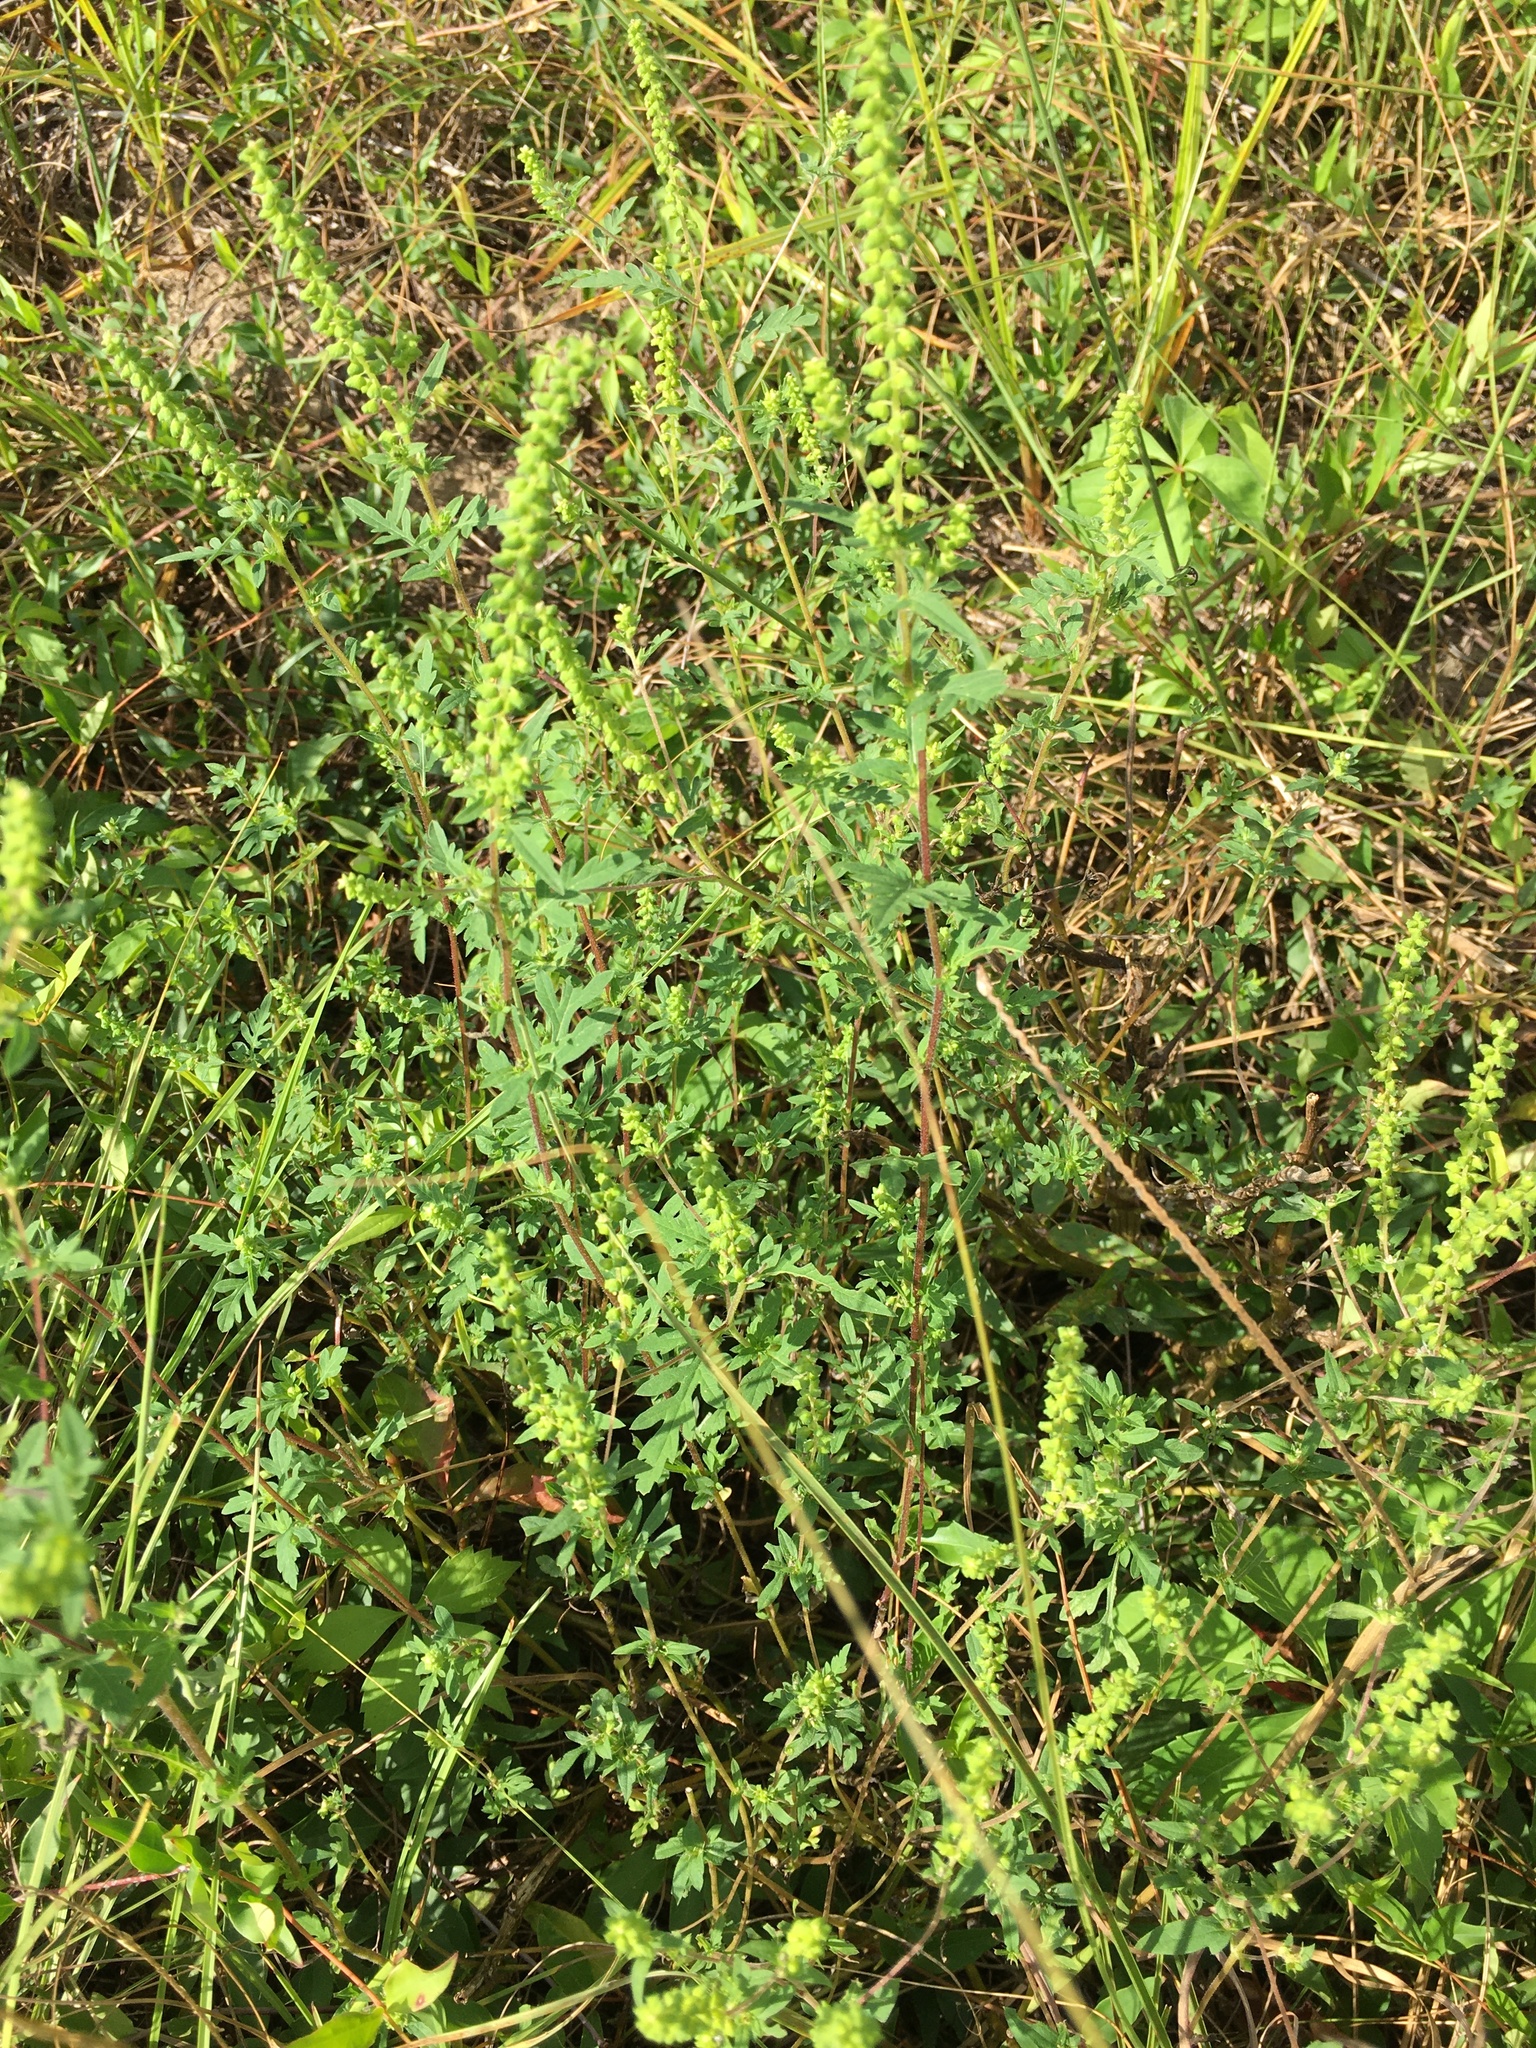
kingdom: Plantae
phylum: Tracheophyta
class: Magnoliopsida
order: Asterales
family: Asteraceae
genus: Ambrosia
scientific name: Ambrosia artemisiifolia
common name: Annual ragweed
